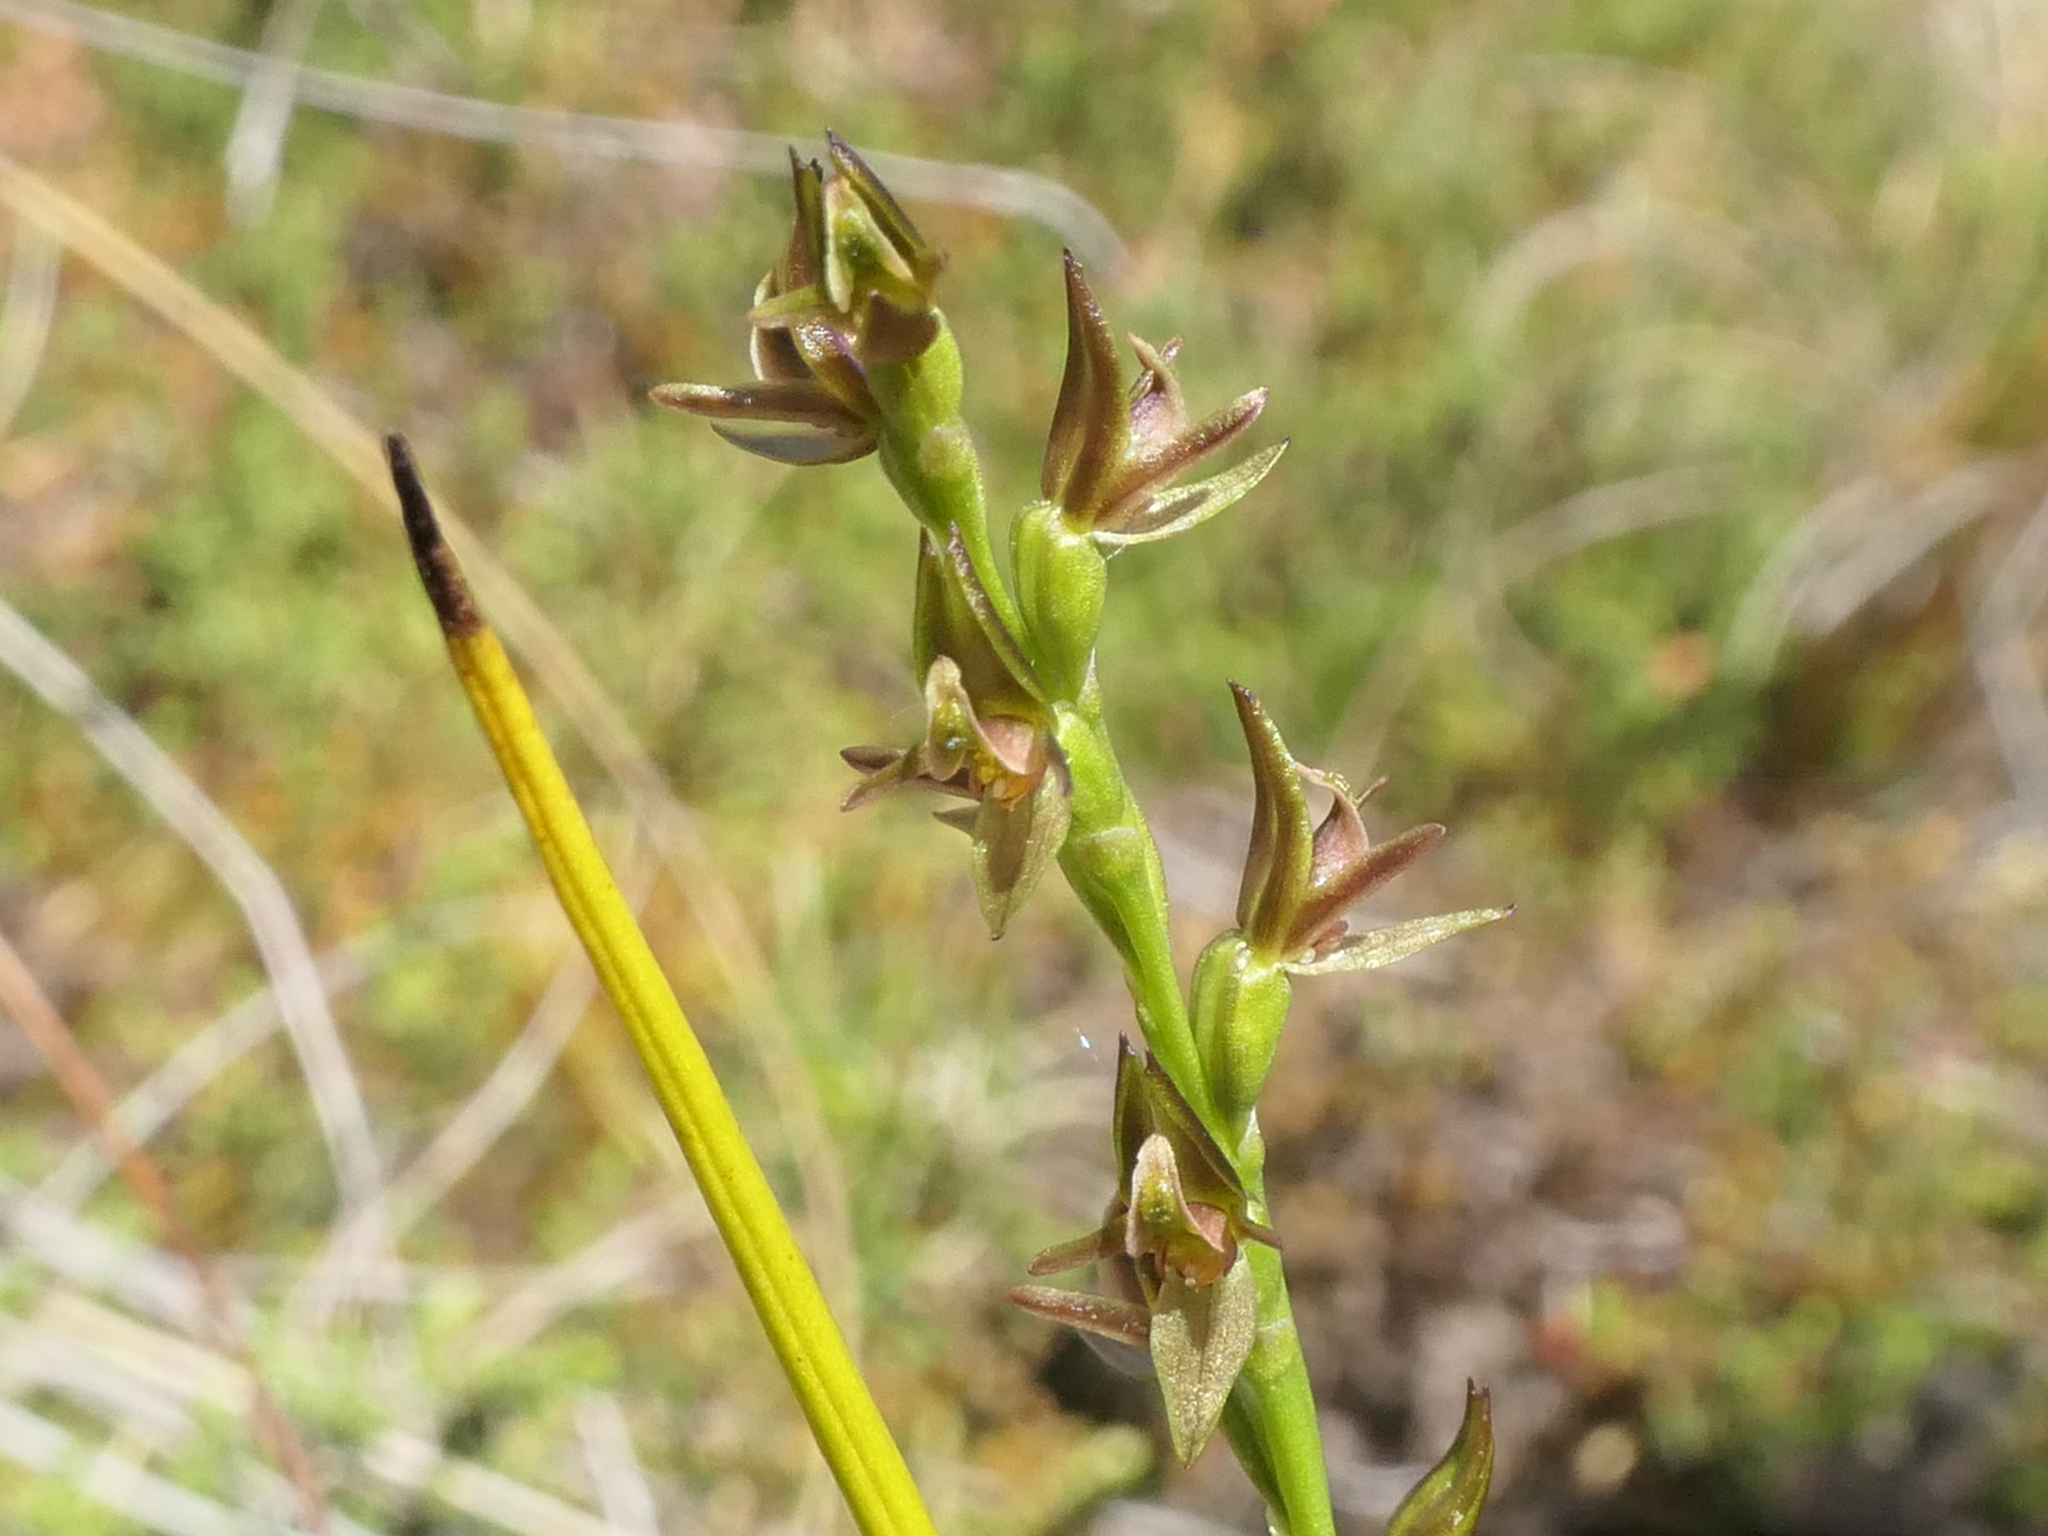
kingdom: Plantae
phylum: Tracheophyta
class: Liliopsida
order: Asparagales
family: Orchidaceae
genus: Prasophyllum
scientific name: Prasophyllum colensoi
